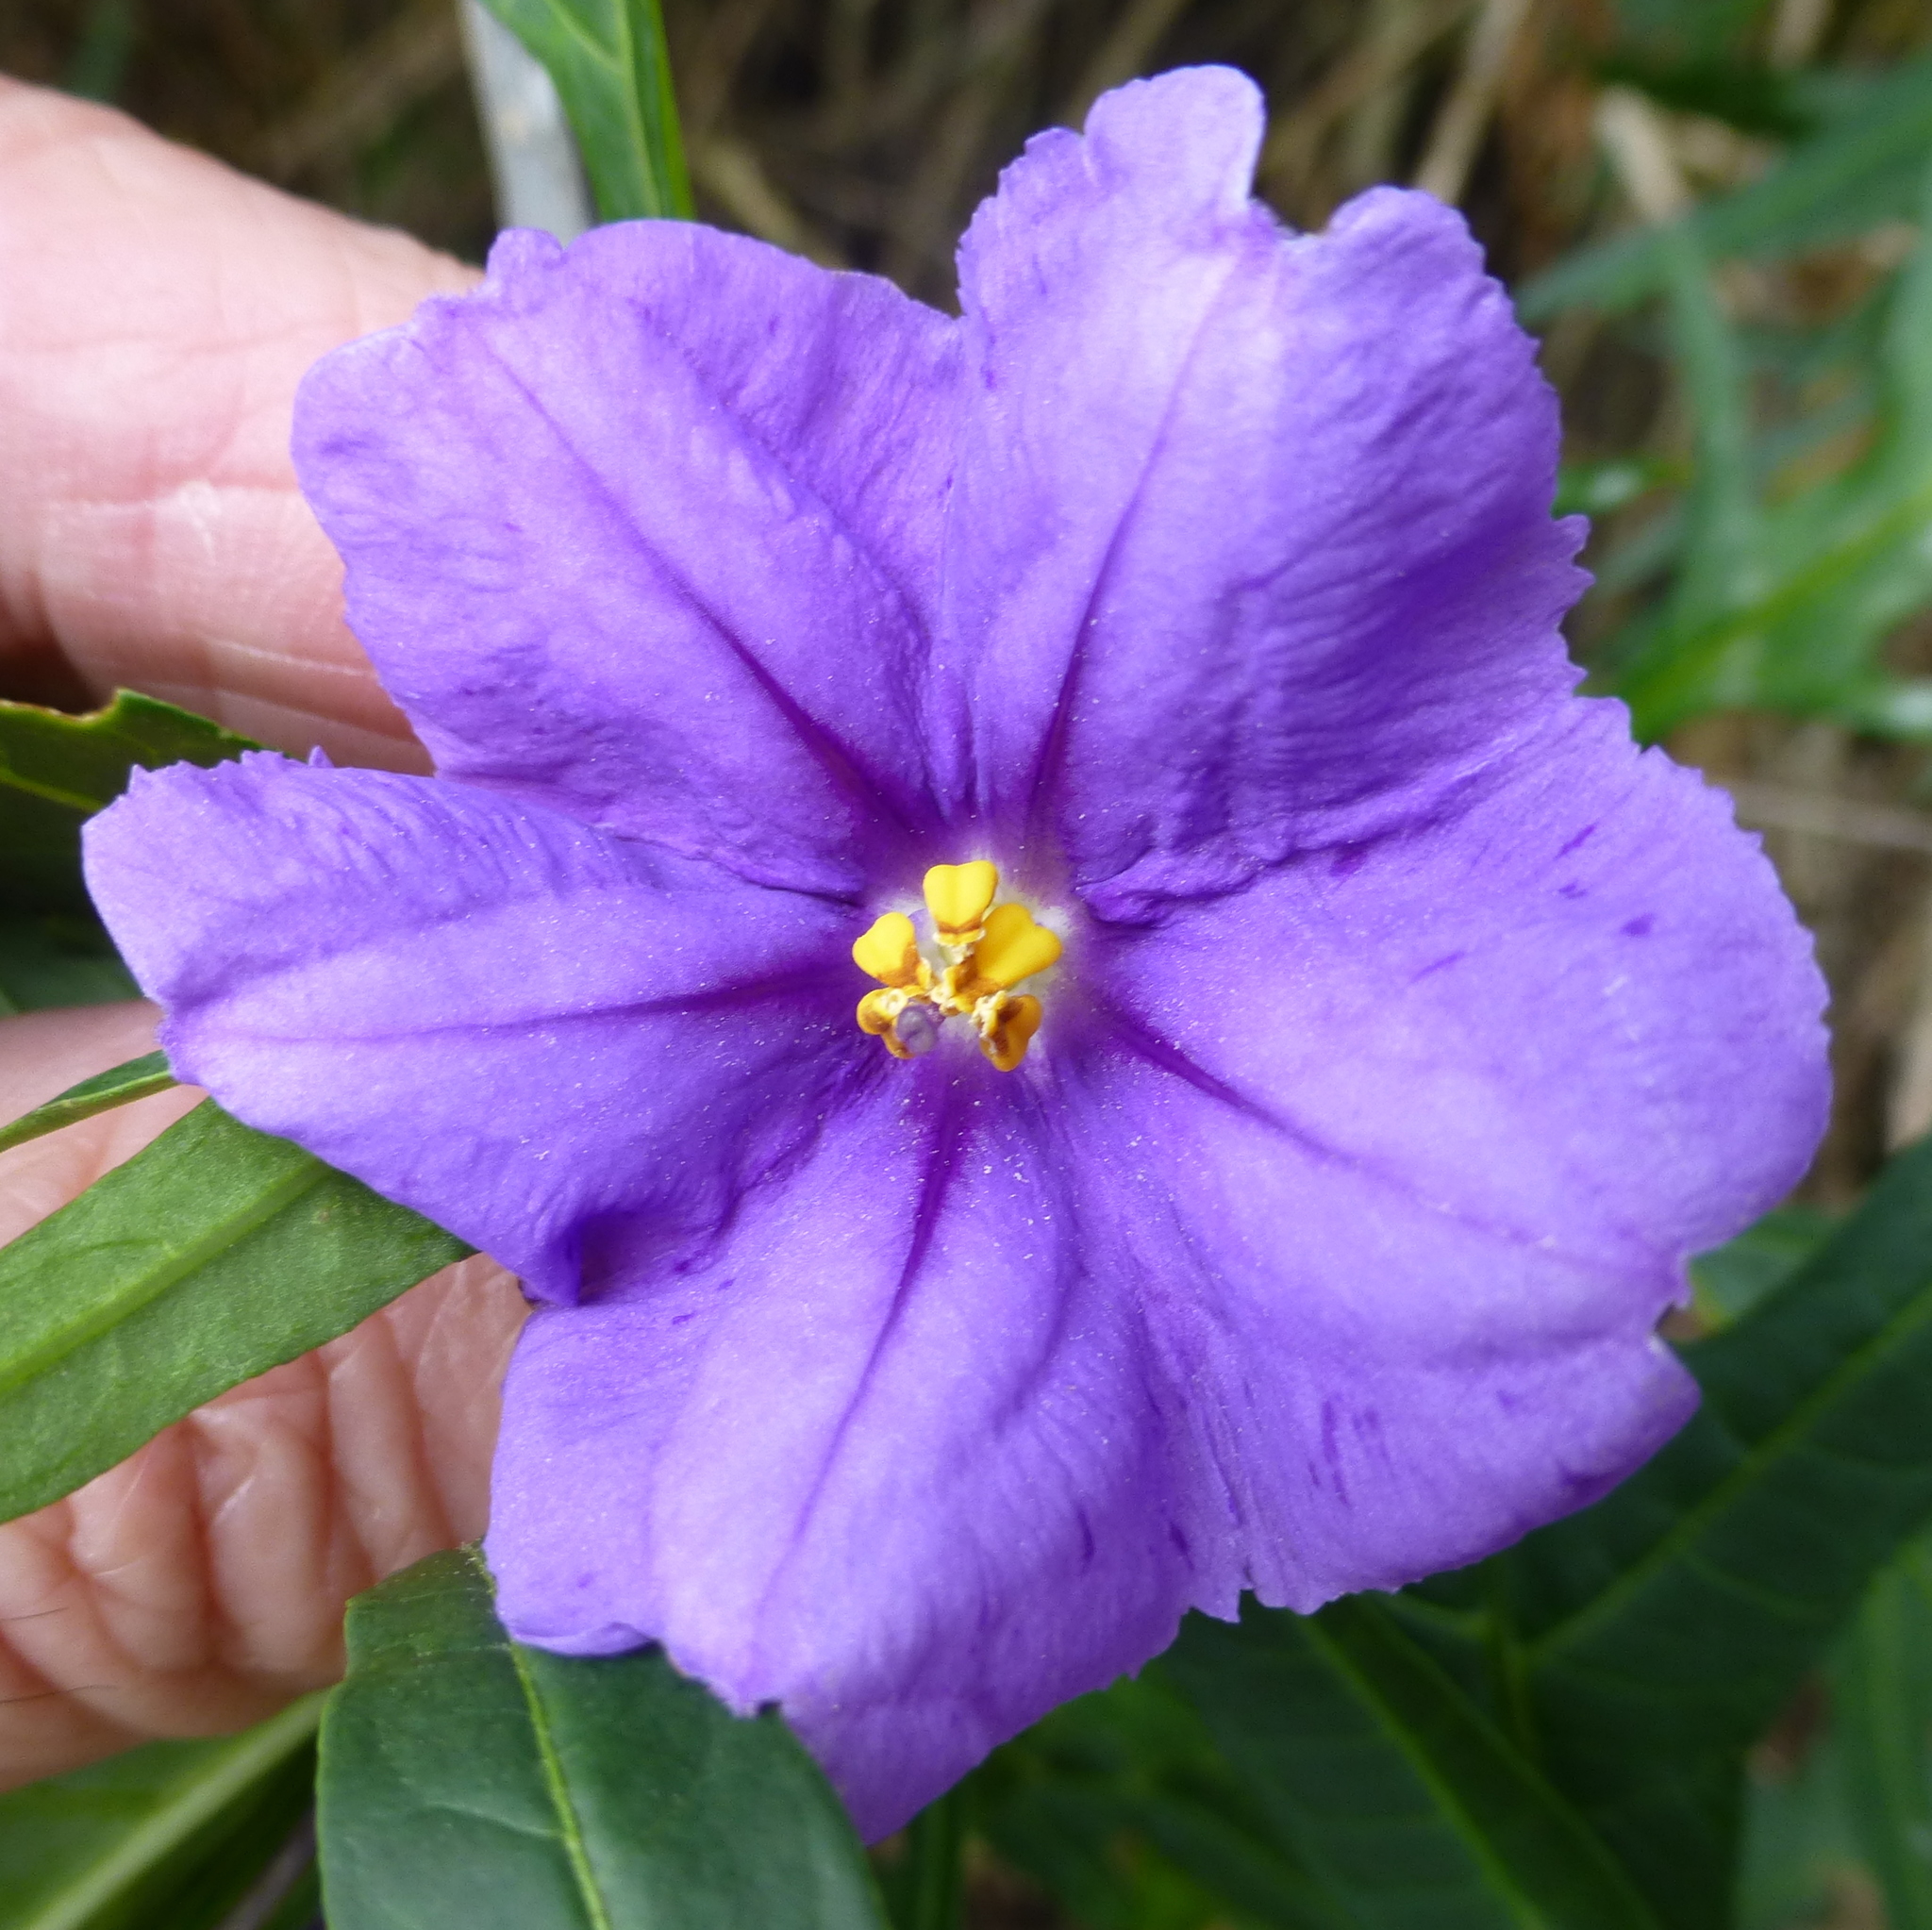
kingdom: Plantae
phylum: Tracheophyta
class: Magnoliopsida
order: Solanales
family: Solanaceae
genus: Solanum
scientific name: Solanum laciniatum
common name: Kangaroo-apple
